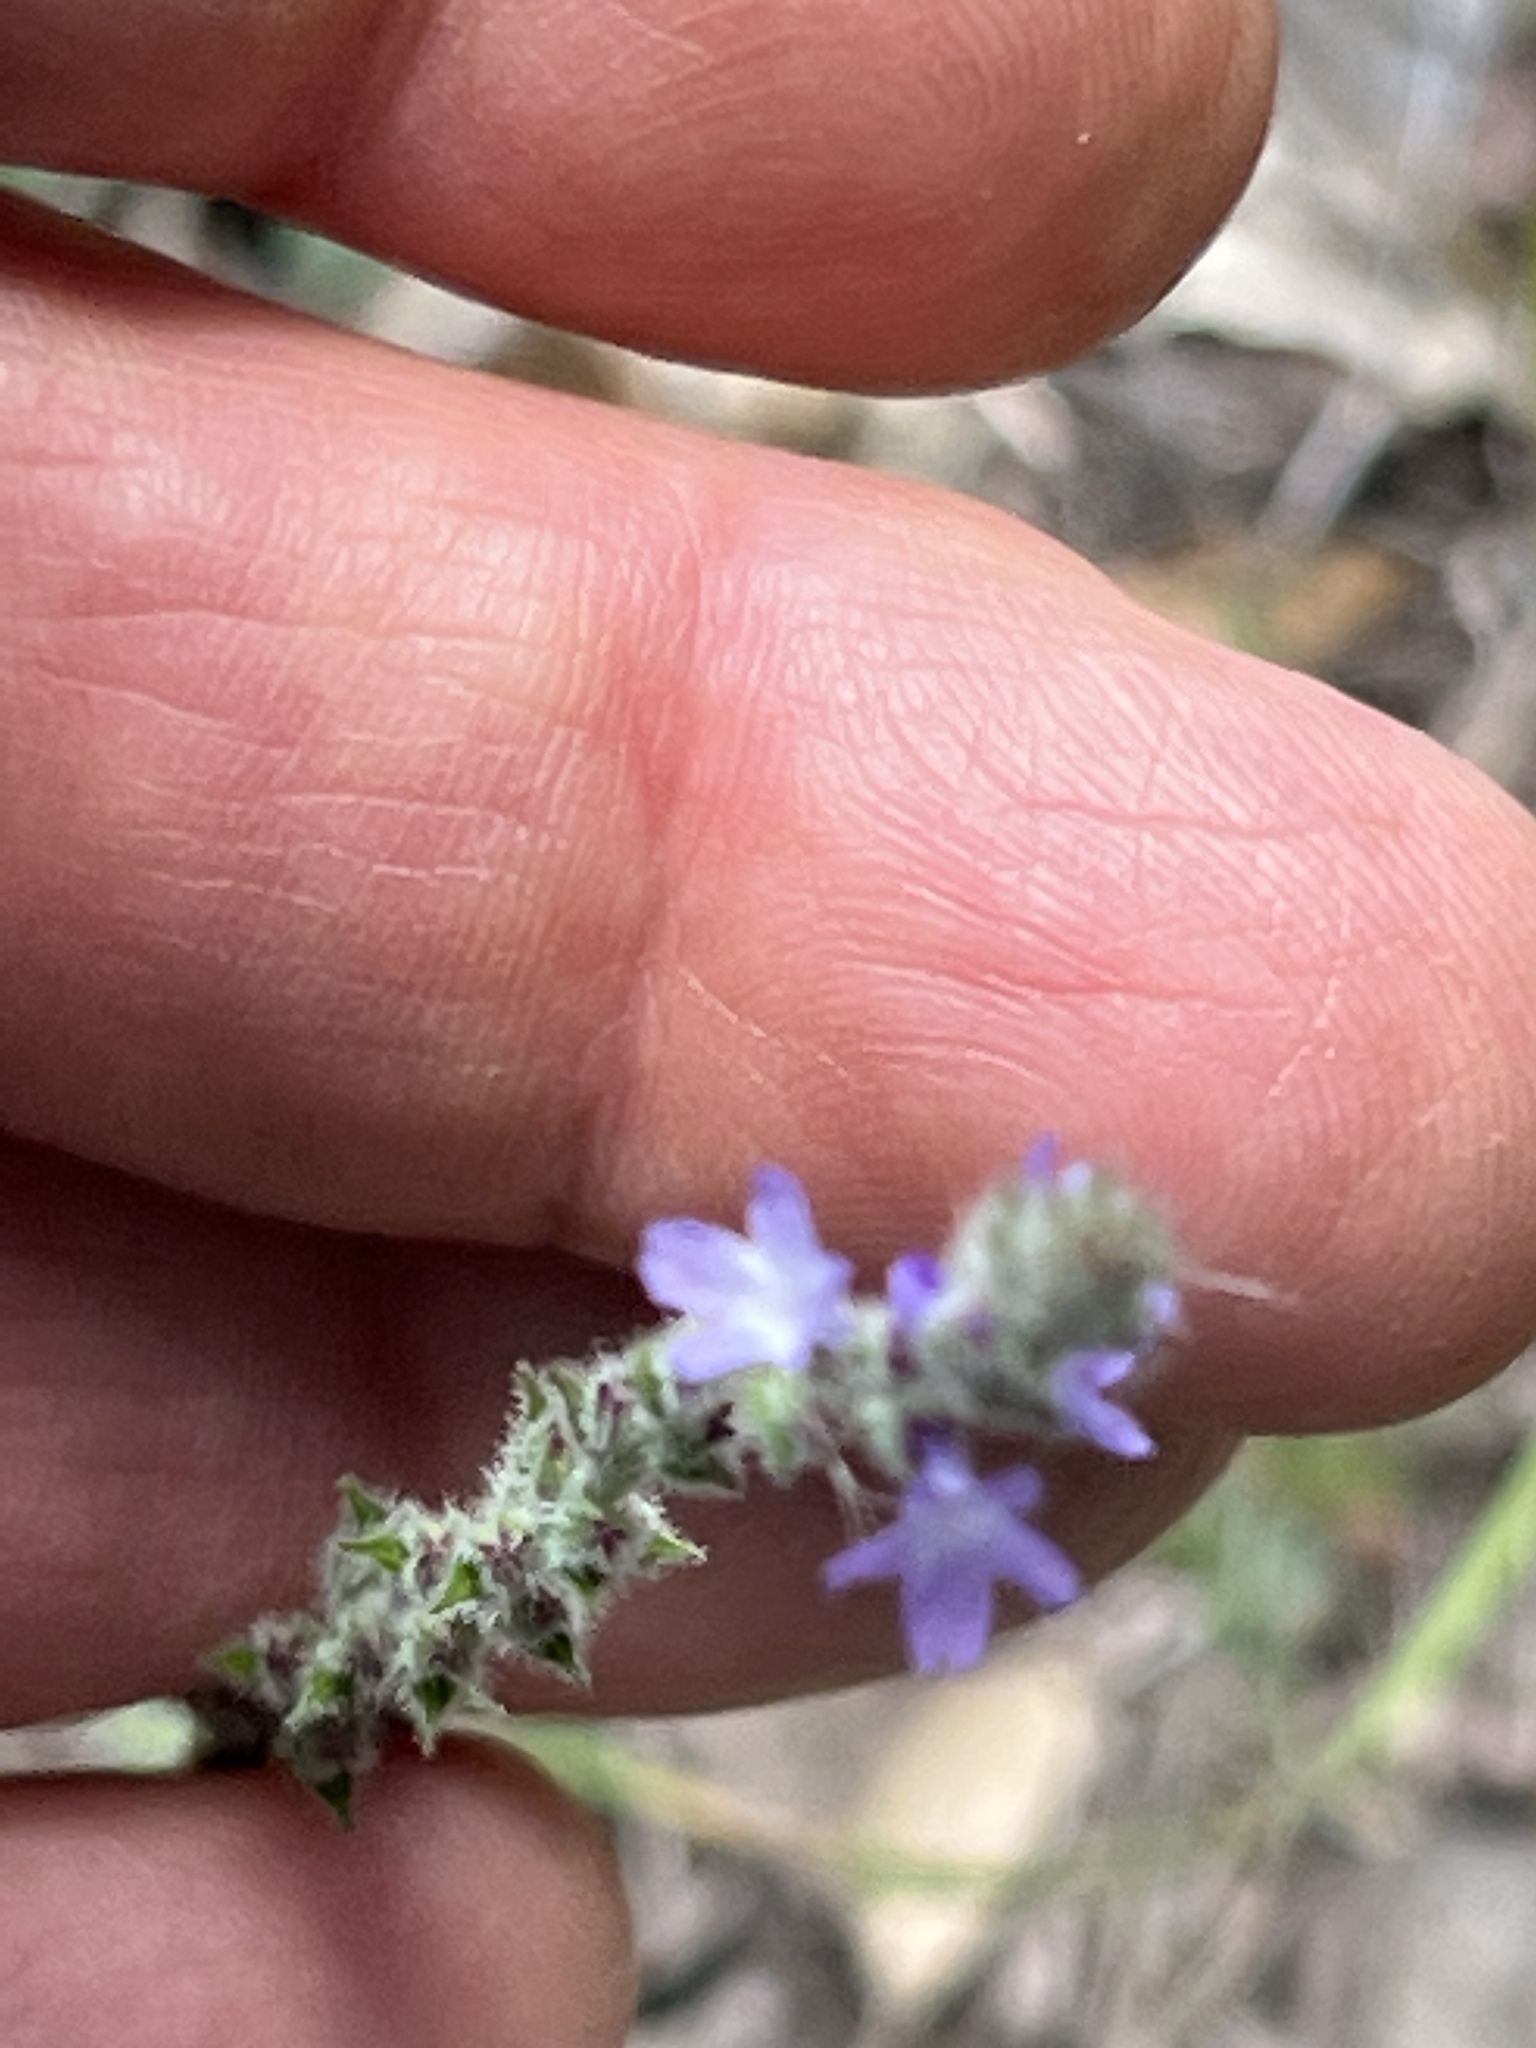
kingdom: Plantae
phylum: Tracheophyta
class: Magnoliopsida
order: Lamiales
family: Verbenaceae
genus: Verbena
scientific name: Verbena canescens
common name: Gray vervain
